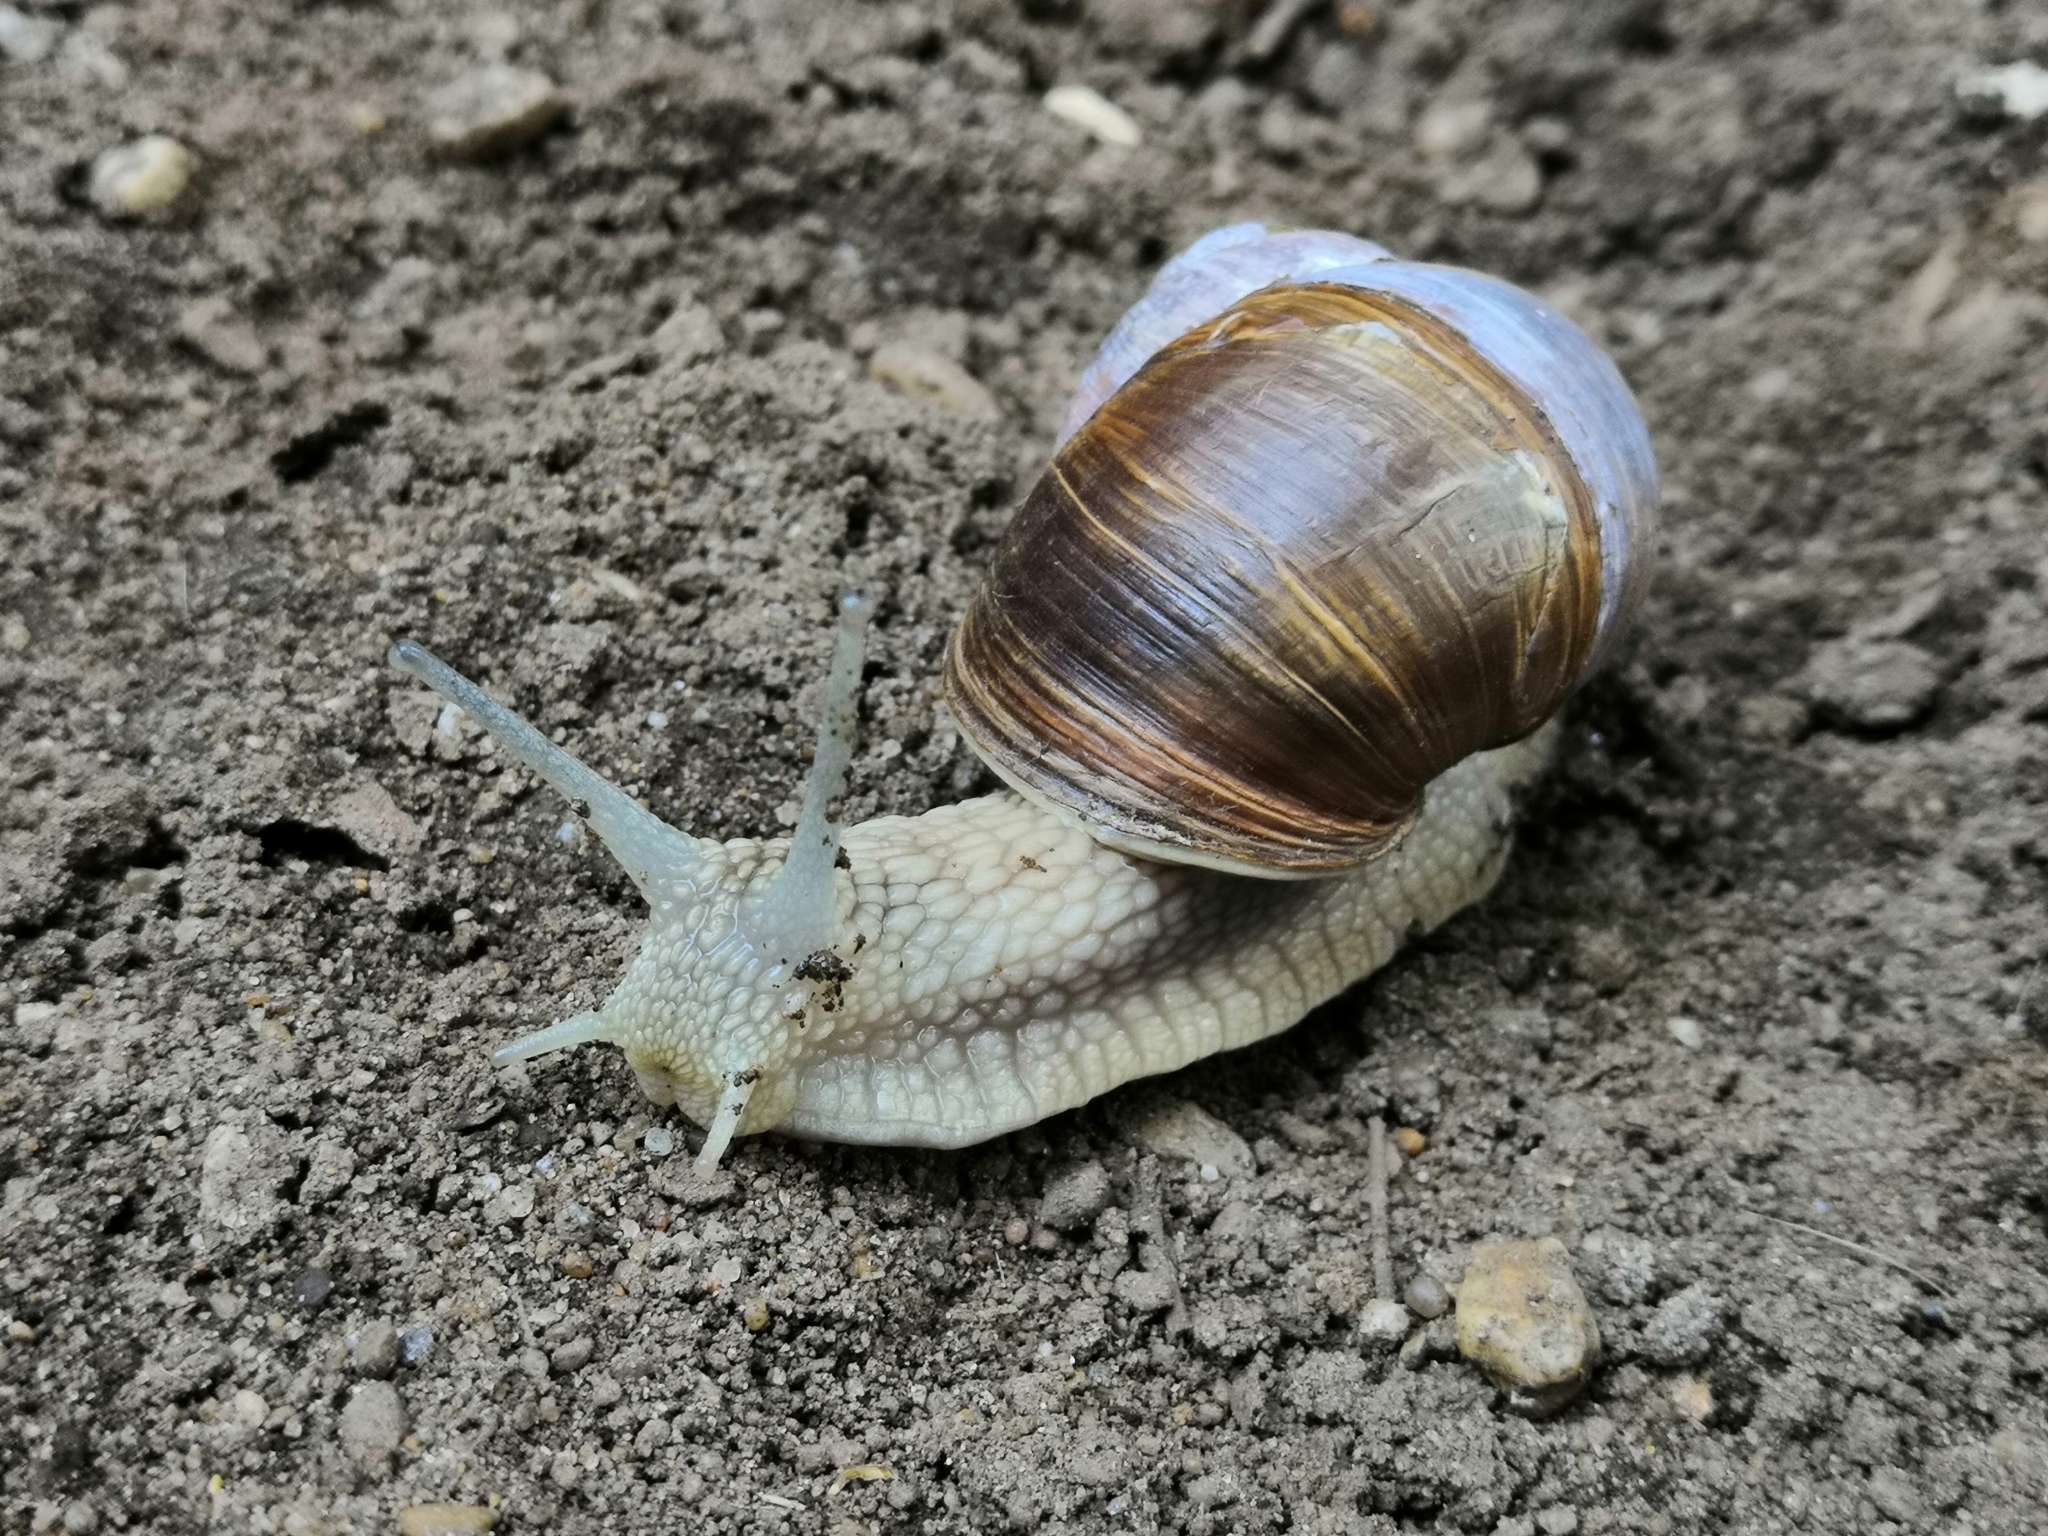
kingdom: Animalia
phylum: Mollusca
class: Gastropoda
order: Stylommatophora
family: Helicidae
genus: Helix
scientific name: Helix pomatia
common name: Roman snail
